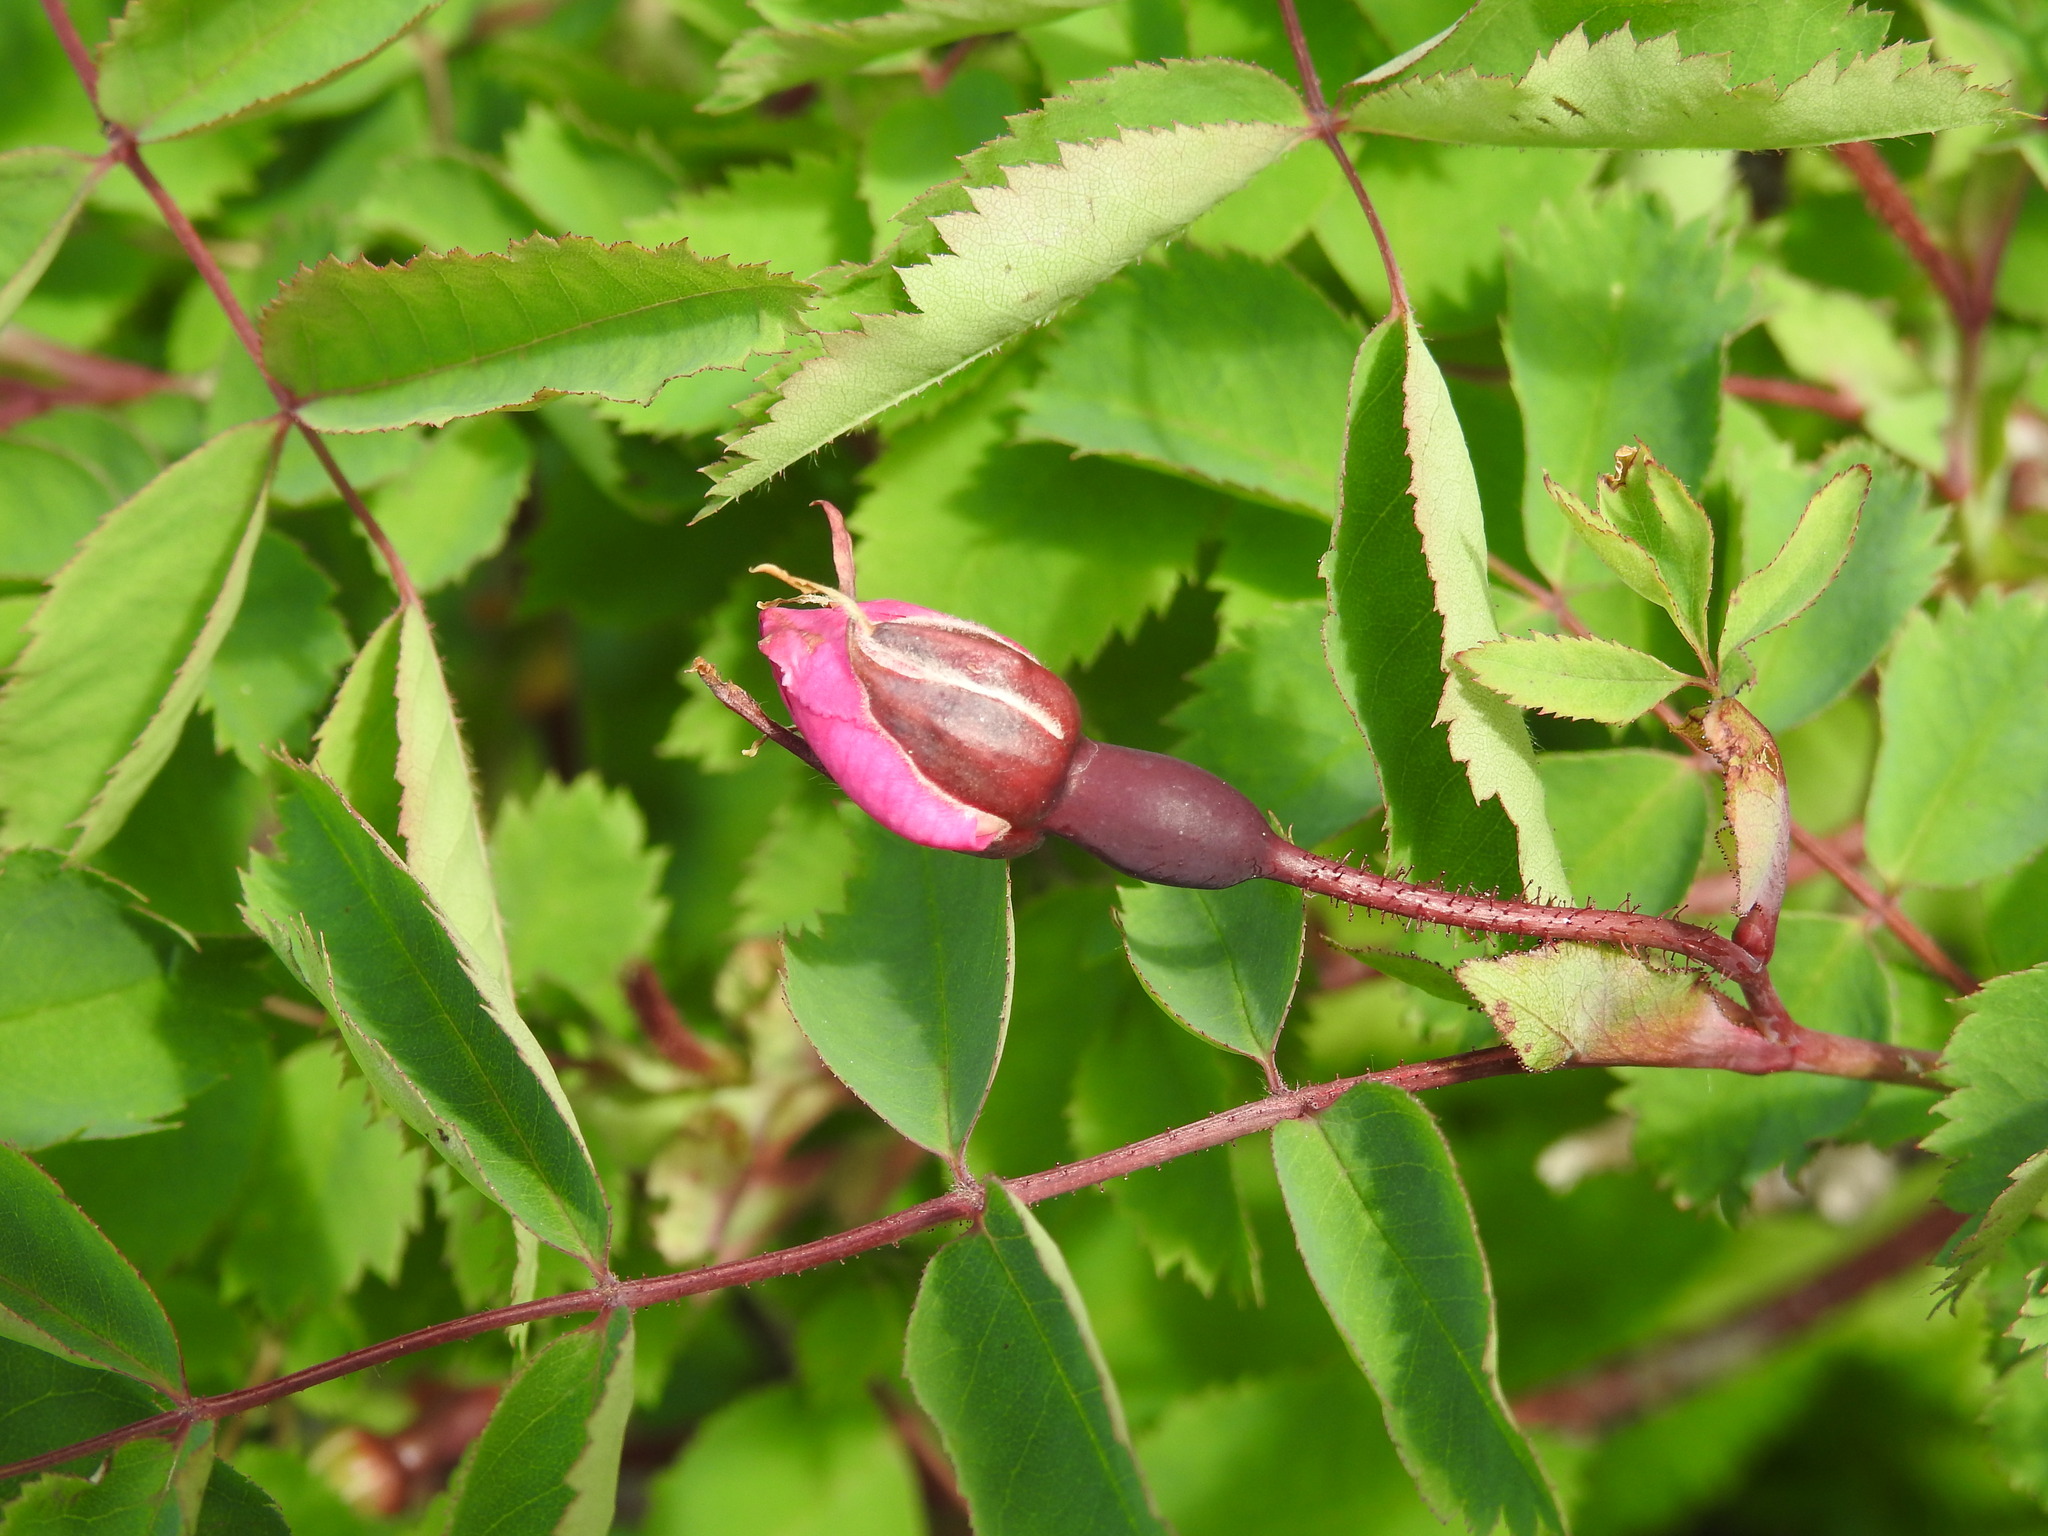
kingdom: Plantae
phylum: Tracheophyta
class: Magnoliopsida
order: Rosales
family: Rosaceae
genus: Rosa
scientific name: Rosa pendulina
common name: Alpine rose
